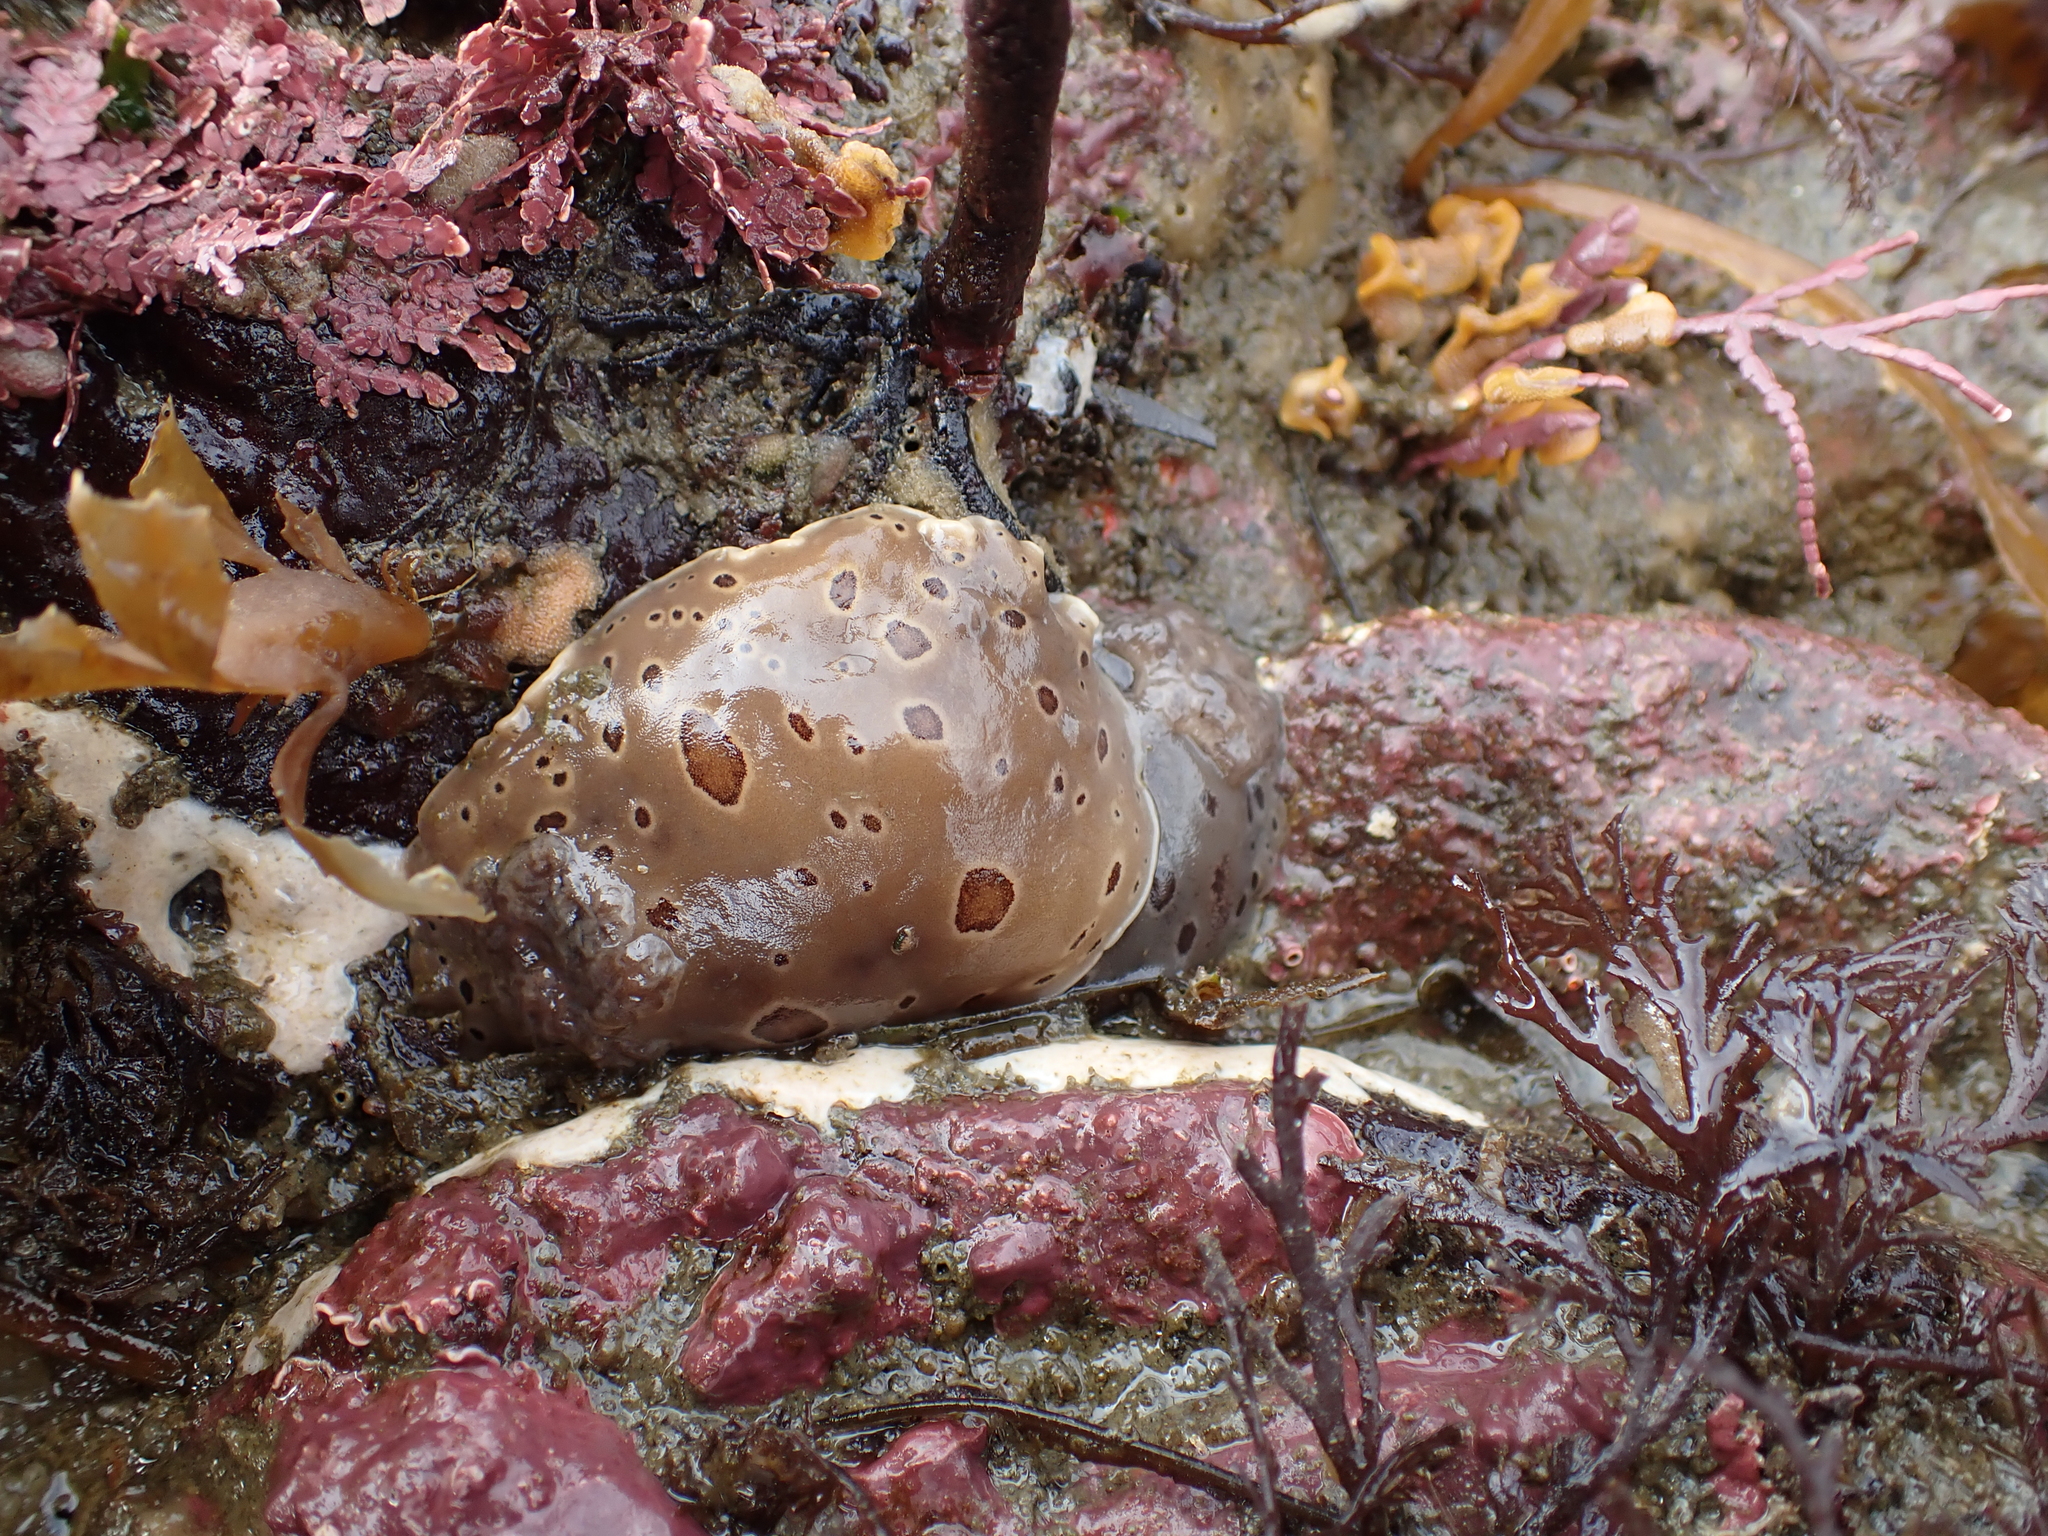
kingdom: Animalia
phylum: Mollusca
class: Gastropoda
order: Nudibranchia
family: Discodorididae
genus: Diaulula
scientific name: Diaulula odonoghuei
